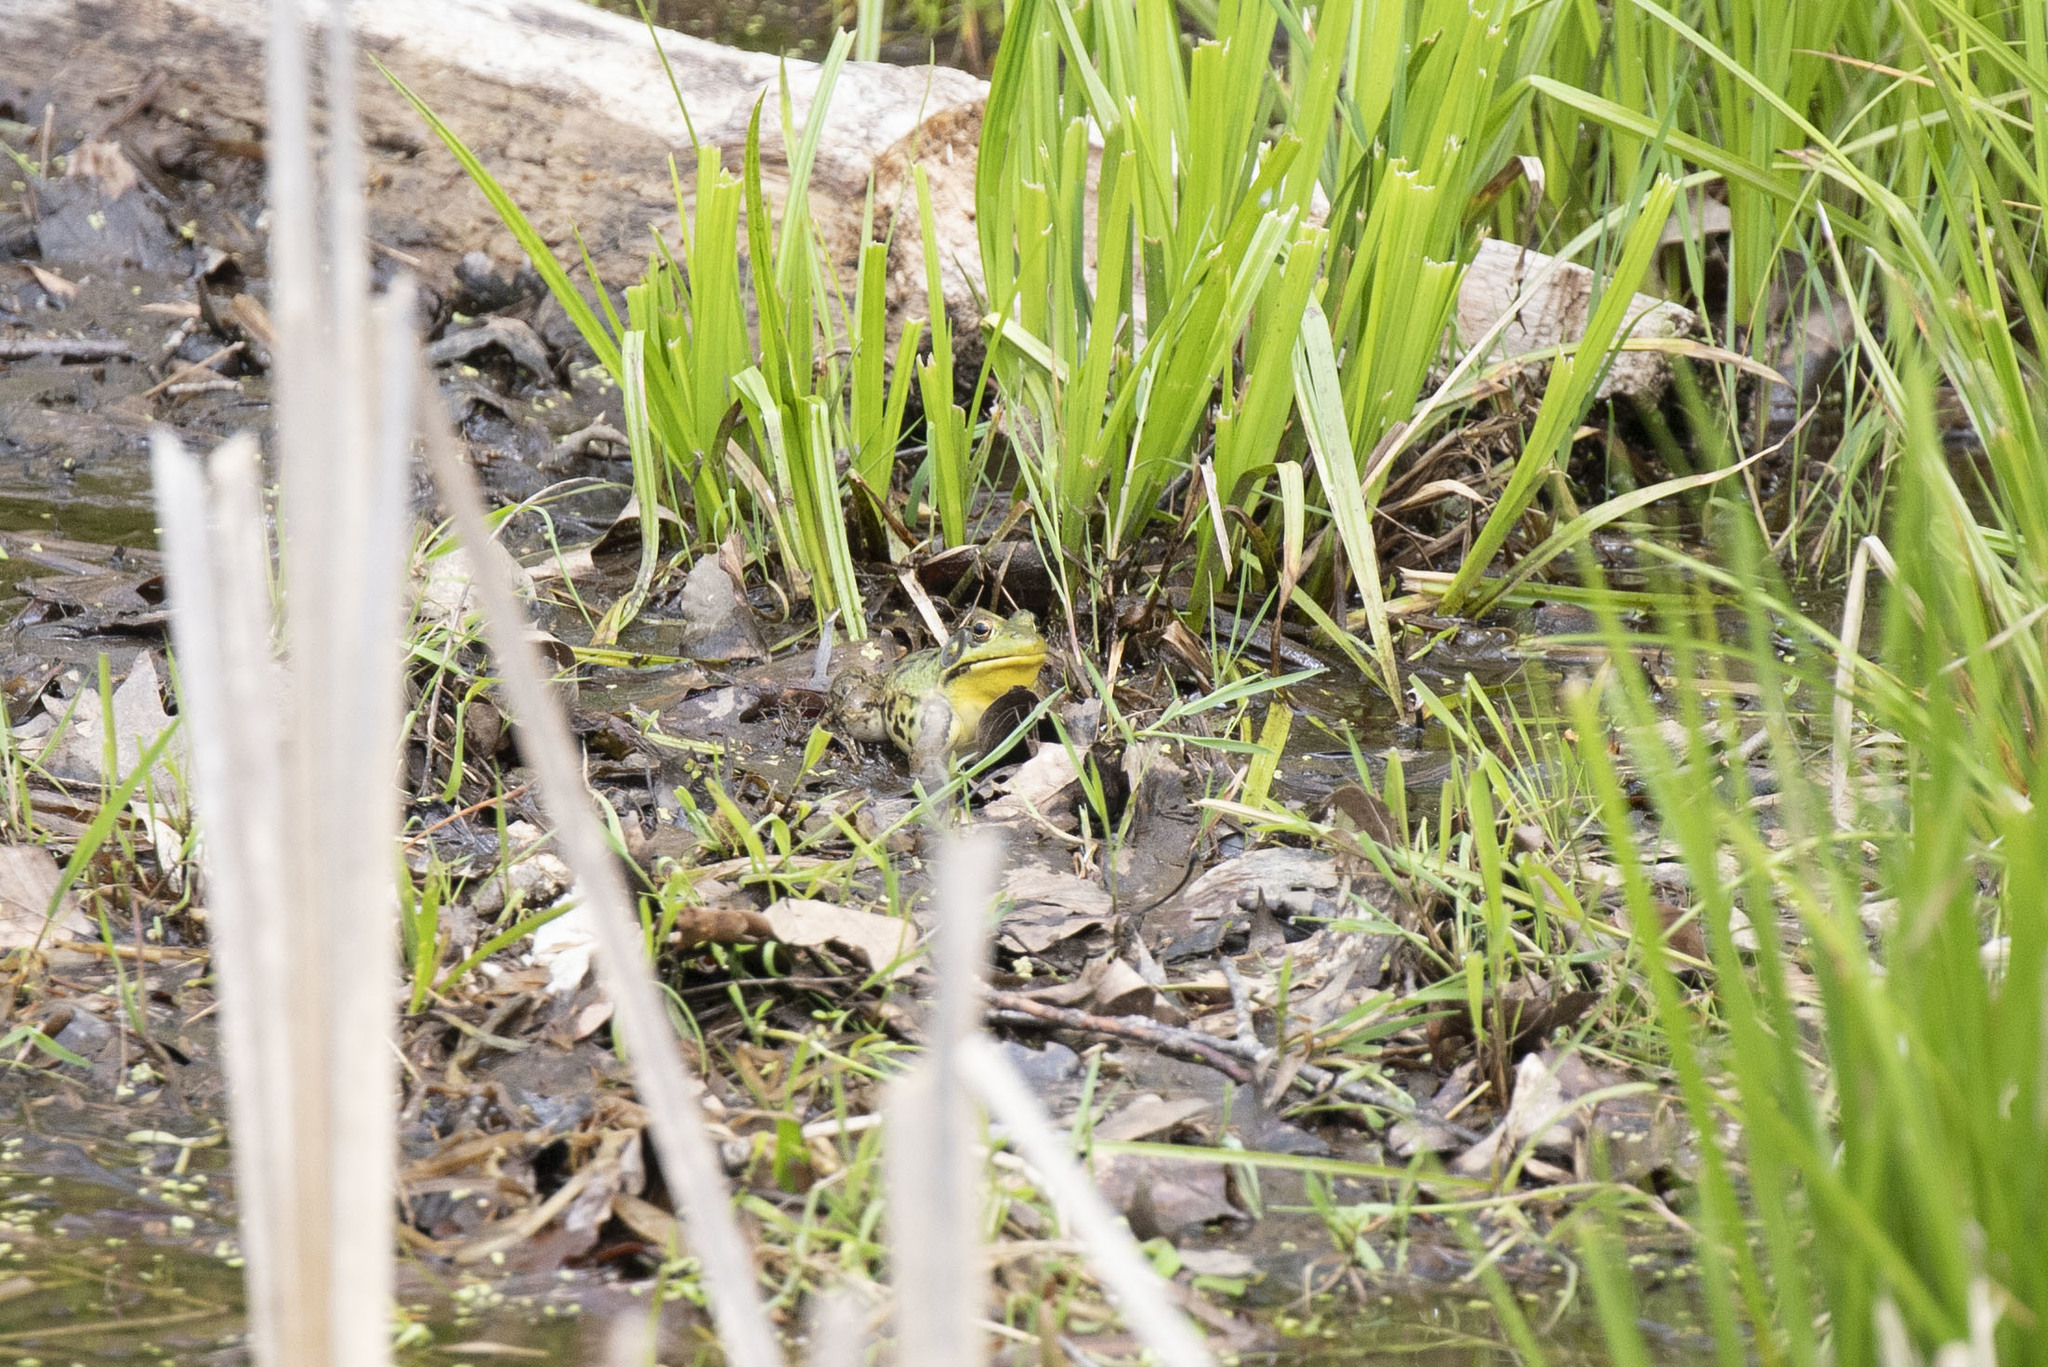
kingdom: Animalia
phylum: Chordata
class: Amphibia
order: Anura
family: Ranidae
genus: Lithobates
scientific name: Lithobates clamitans
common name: Green frog
